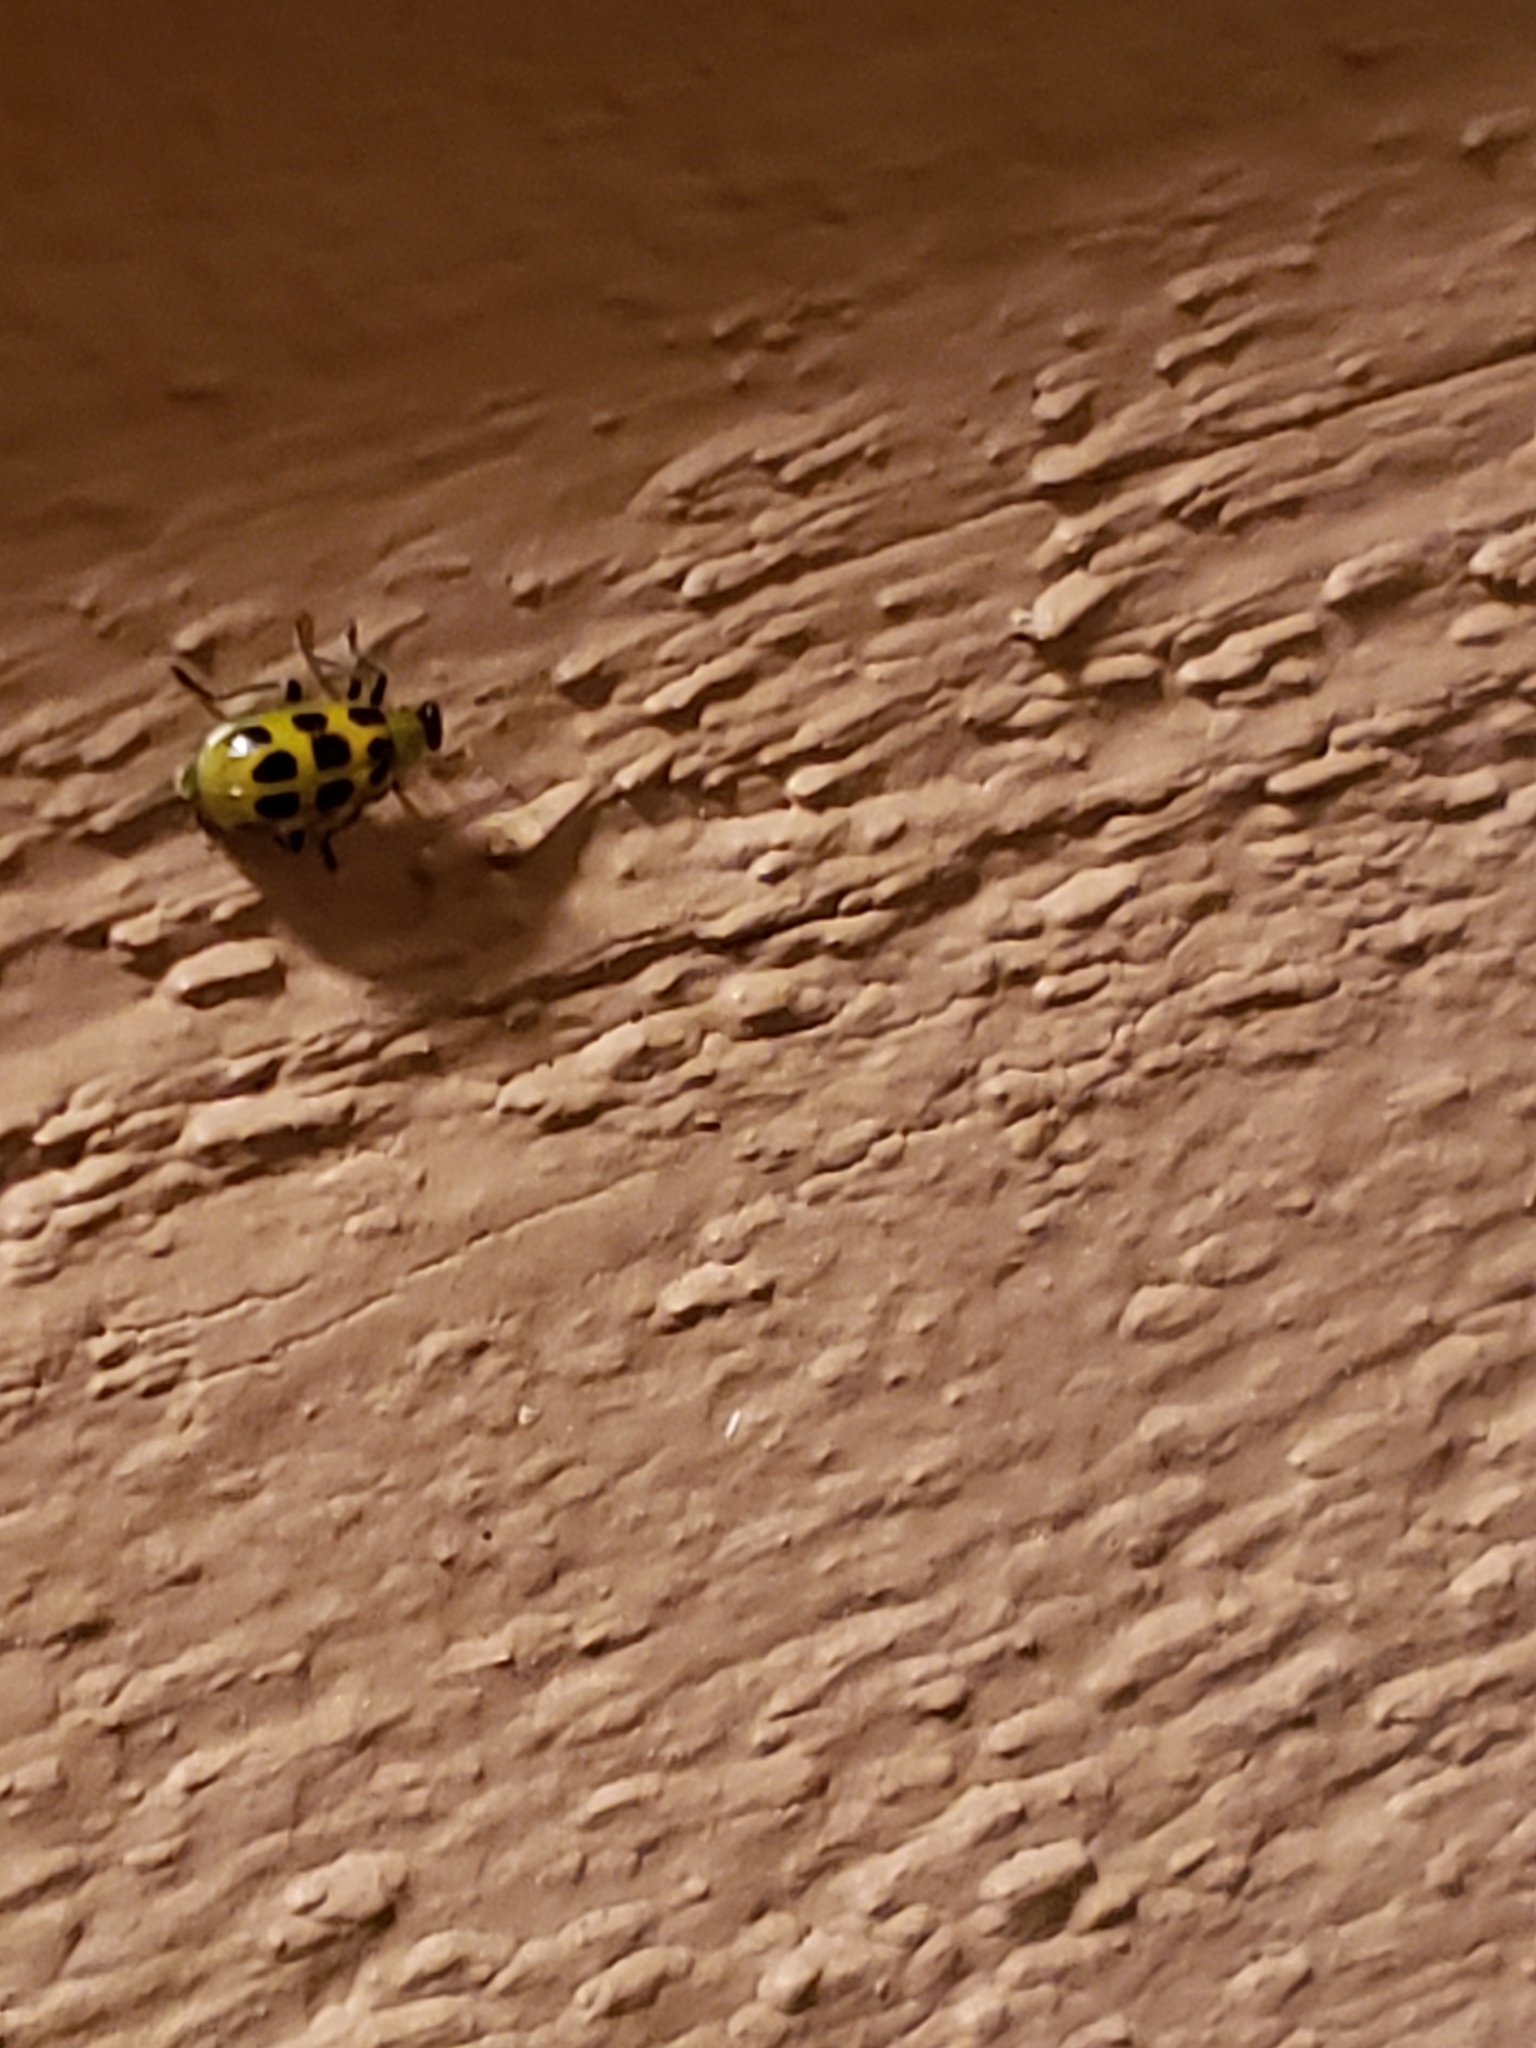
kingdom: Animalia
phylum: Arthropoda
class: Insecta
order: Coleoptera
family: Chrysomelidae
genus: Diabrotica
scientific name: Diabrotica undecimpunctata
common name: Spotted cucumber beetle
